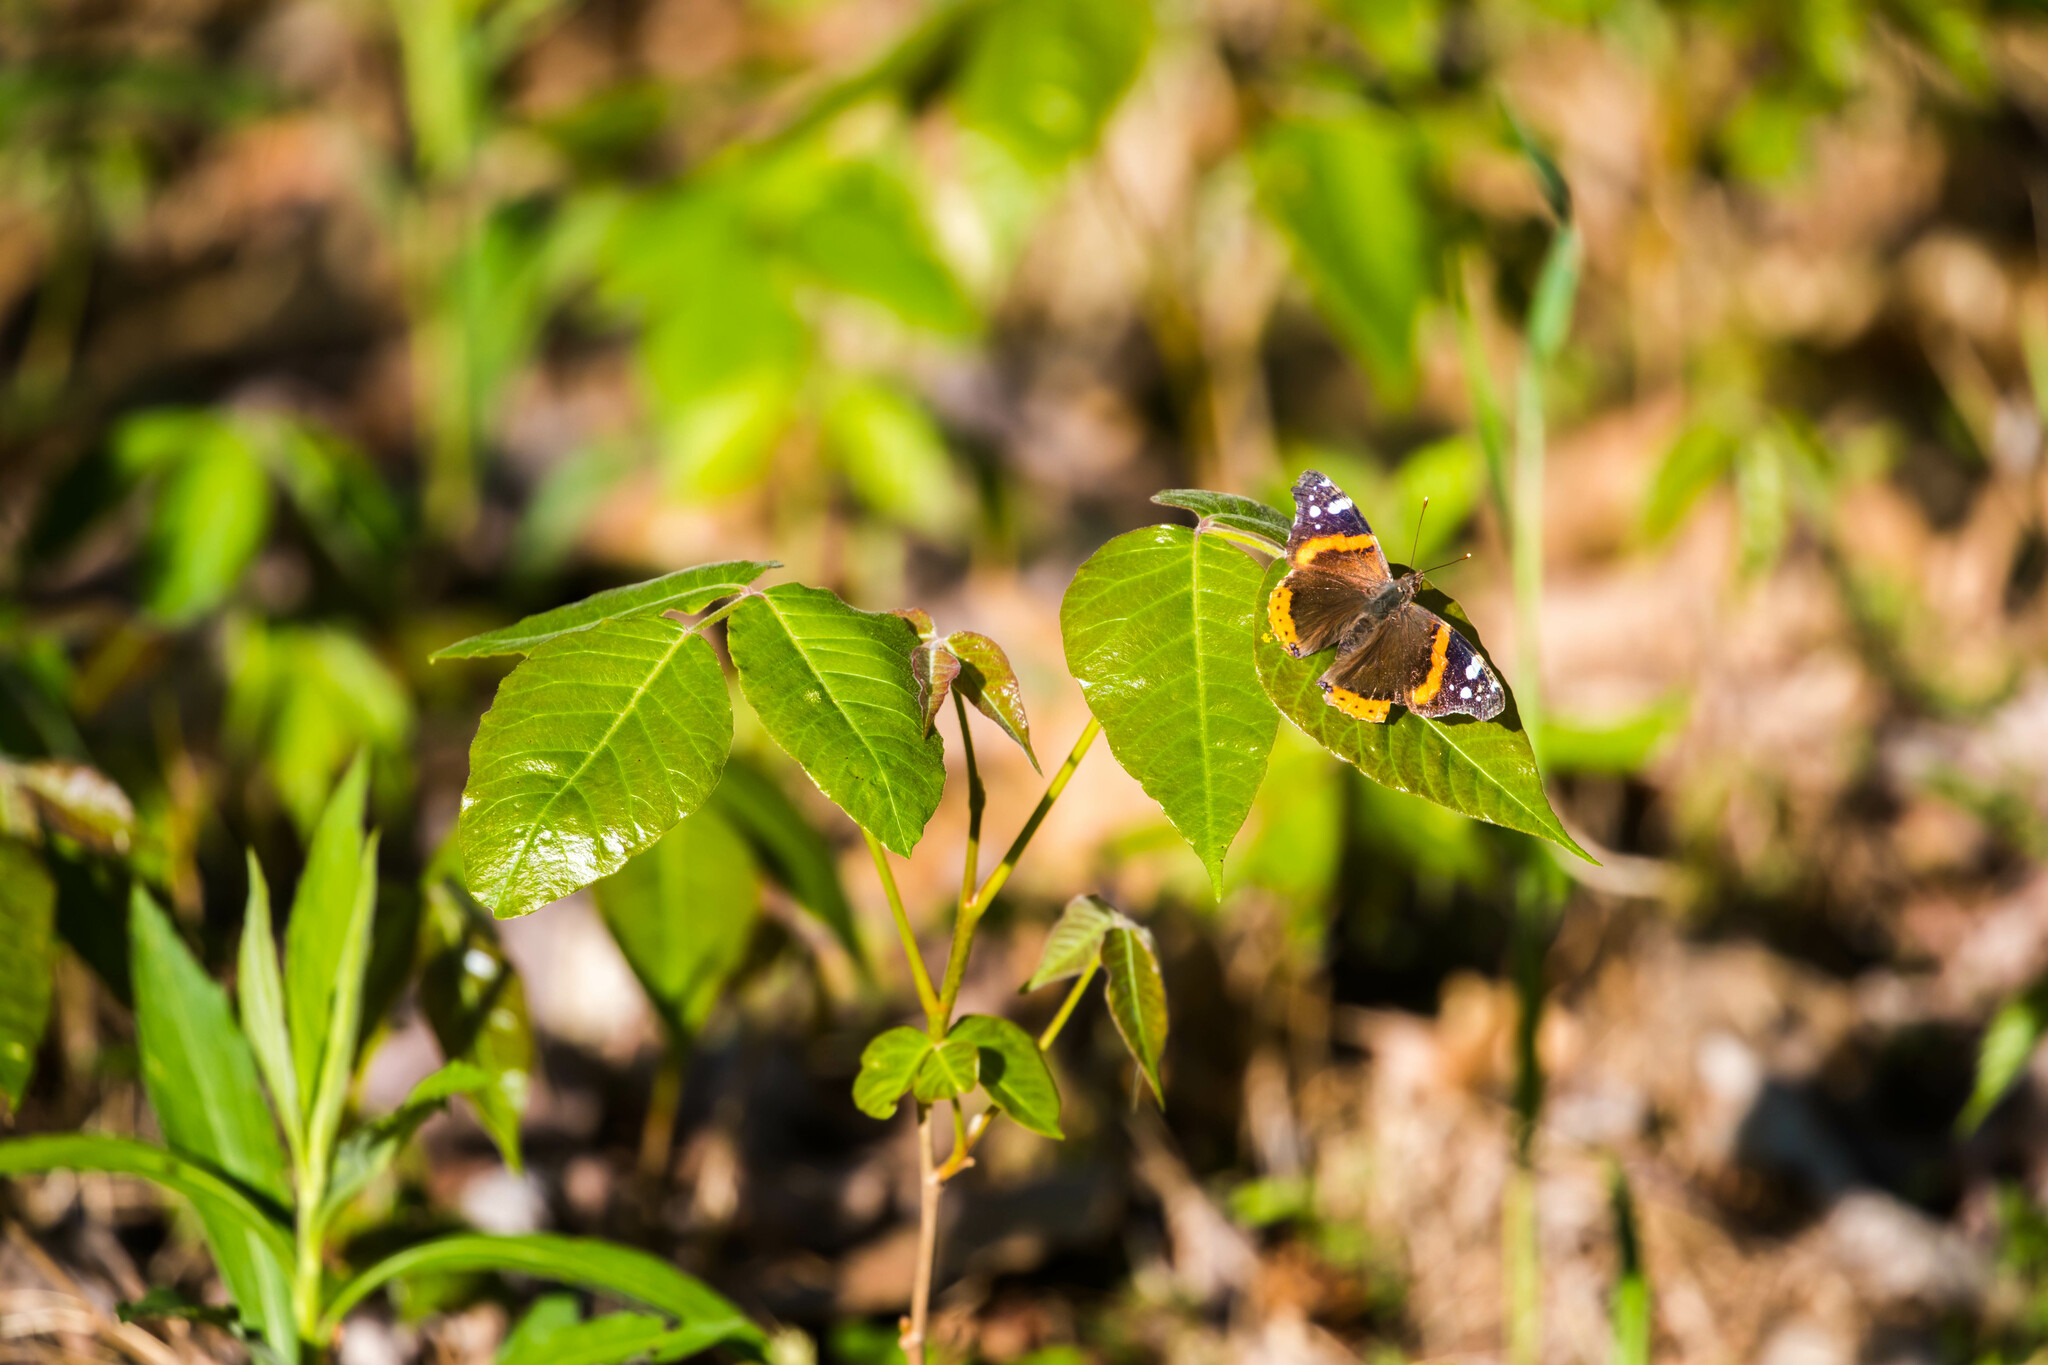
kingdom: Animalia
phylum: Arthropoda
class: Insecta
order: Lepidoptera
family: Nymphalidae
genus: Vanessa
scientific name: Vanessa atalanta
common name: Red admiral
